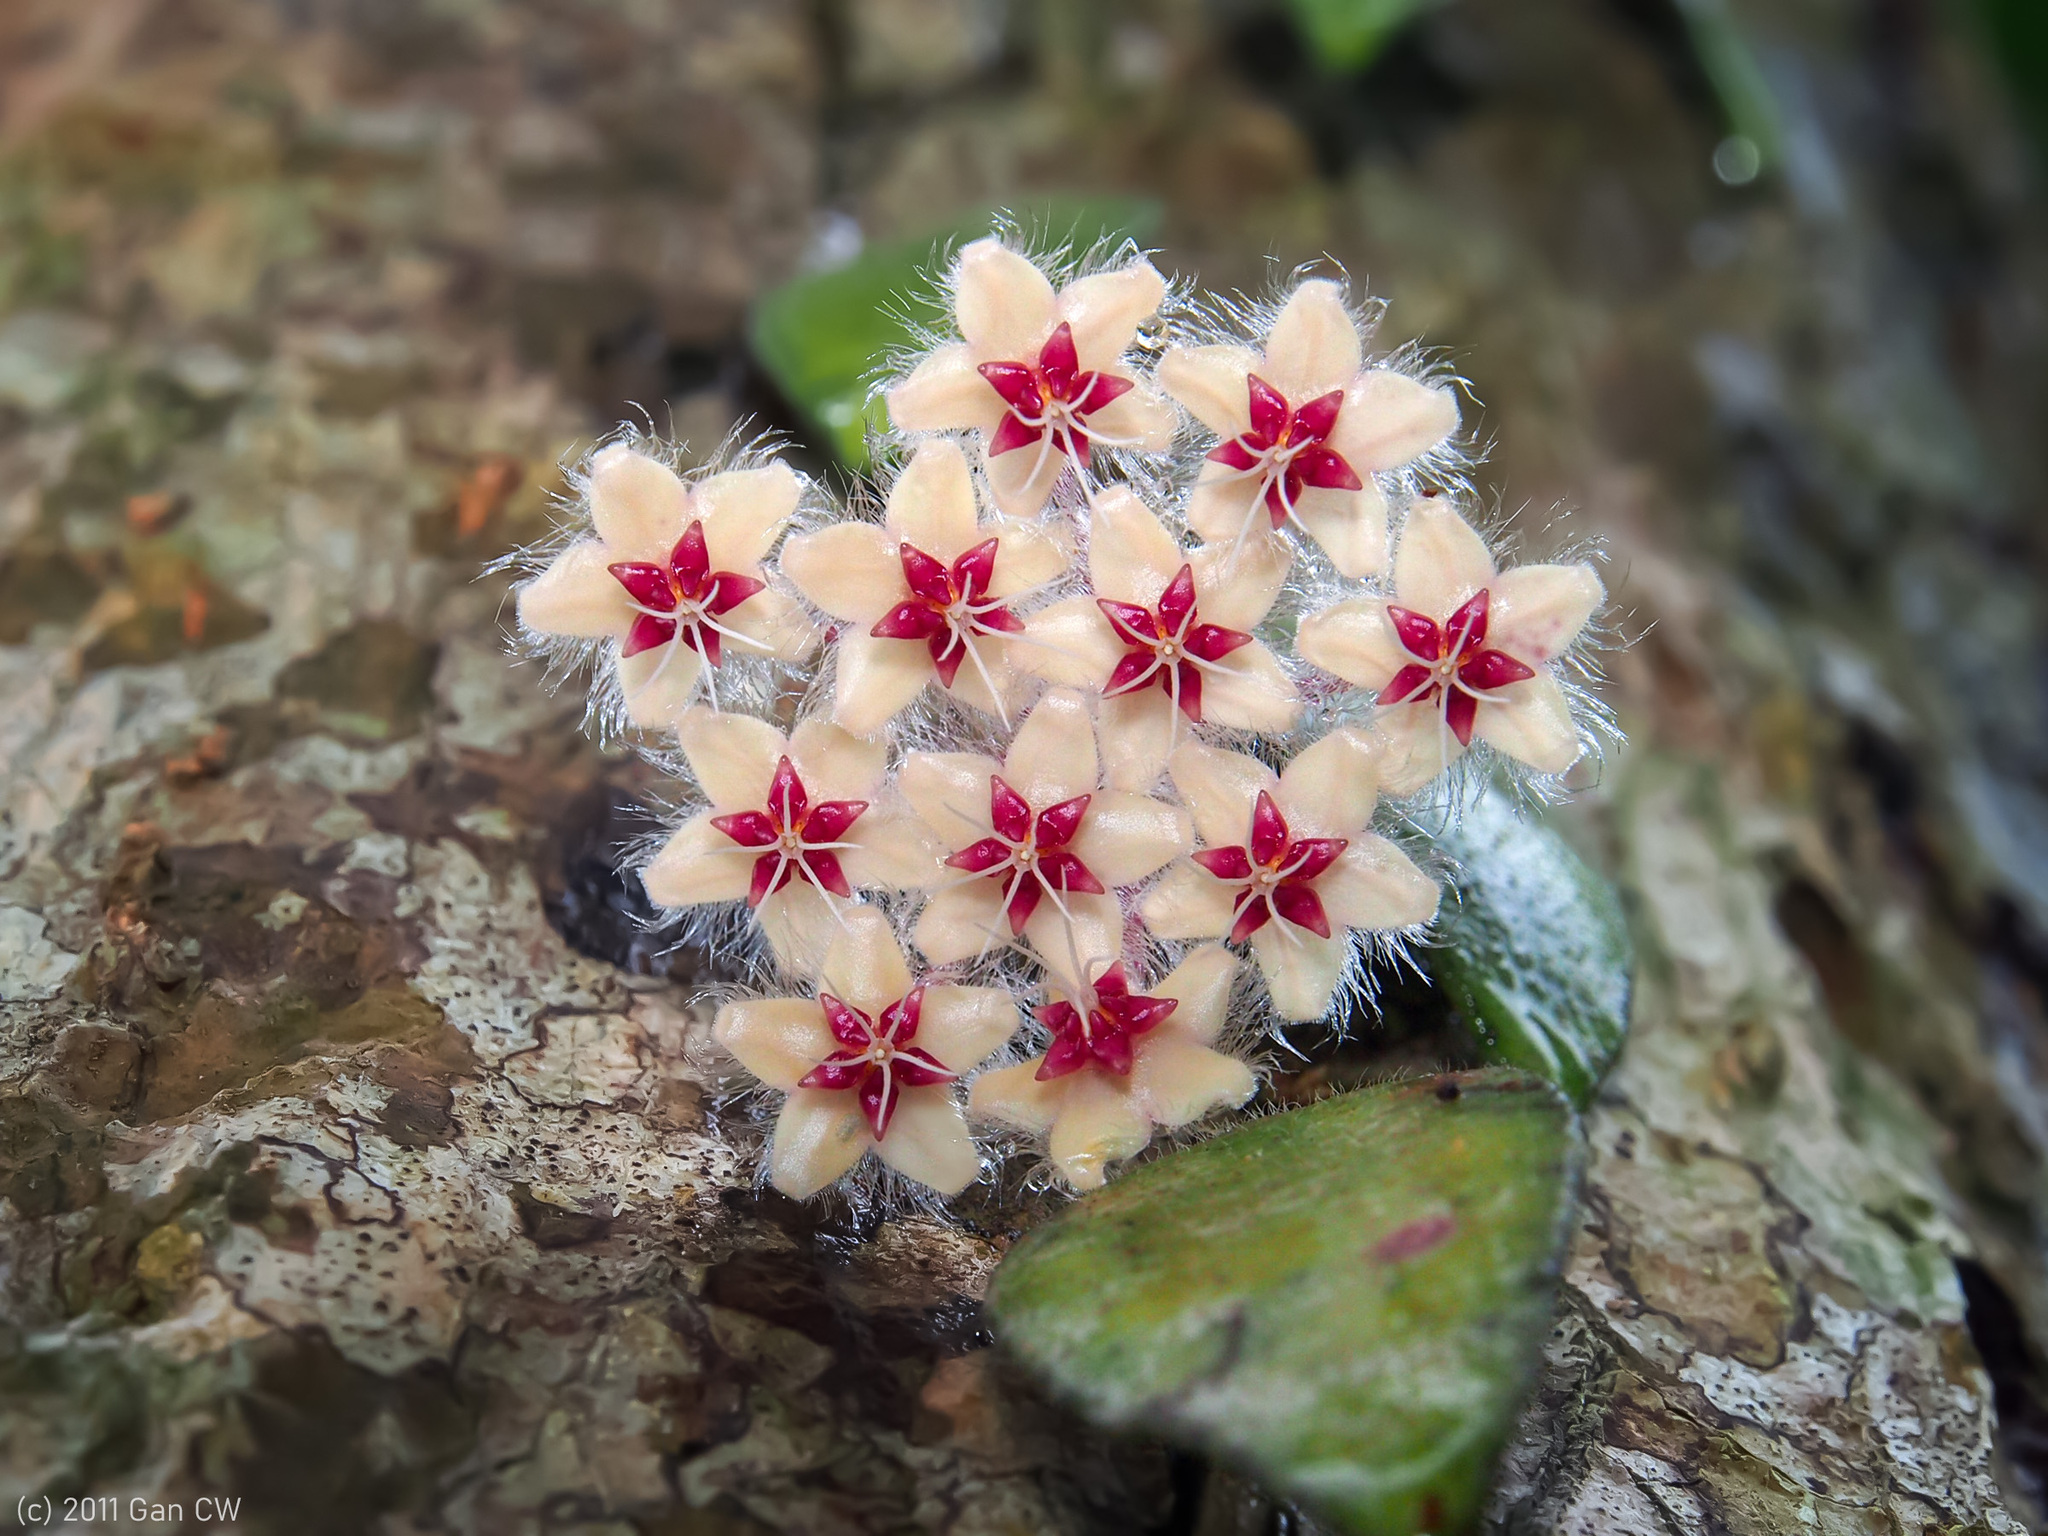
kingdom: Plantae
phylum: Tracheophyta
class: Magnoliopsida
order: Gentianales
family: Apocynaceae
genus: Hoya
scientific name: Hoya caudata
